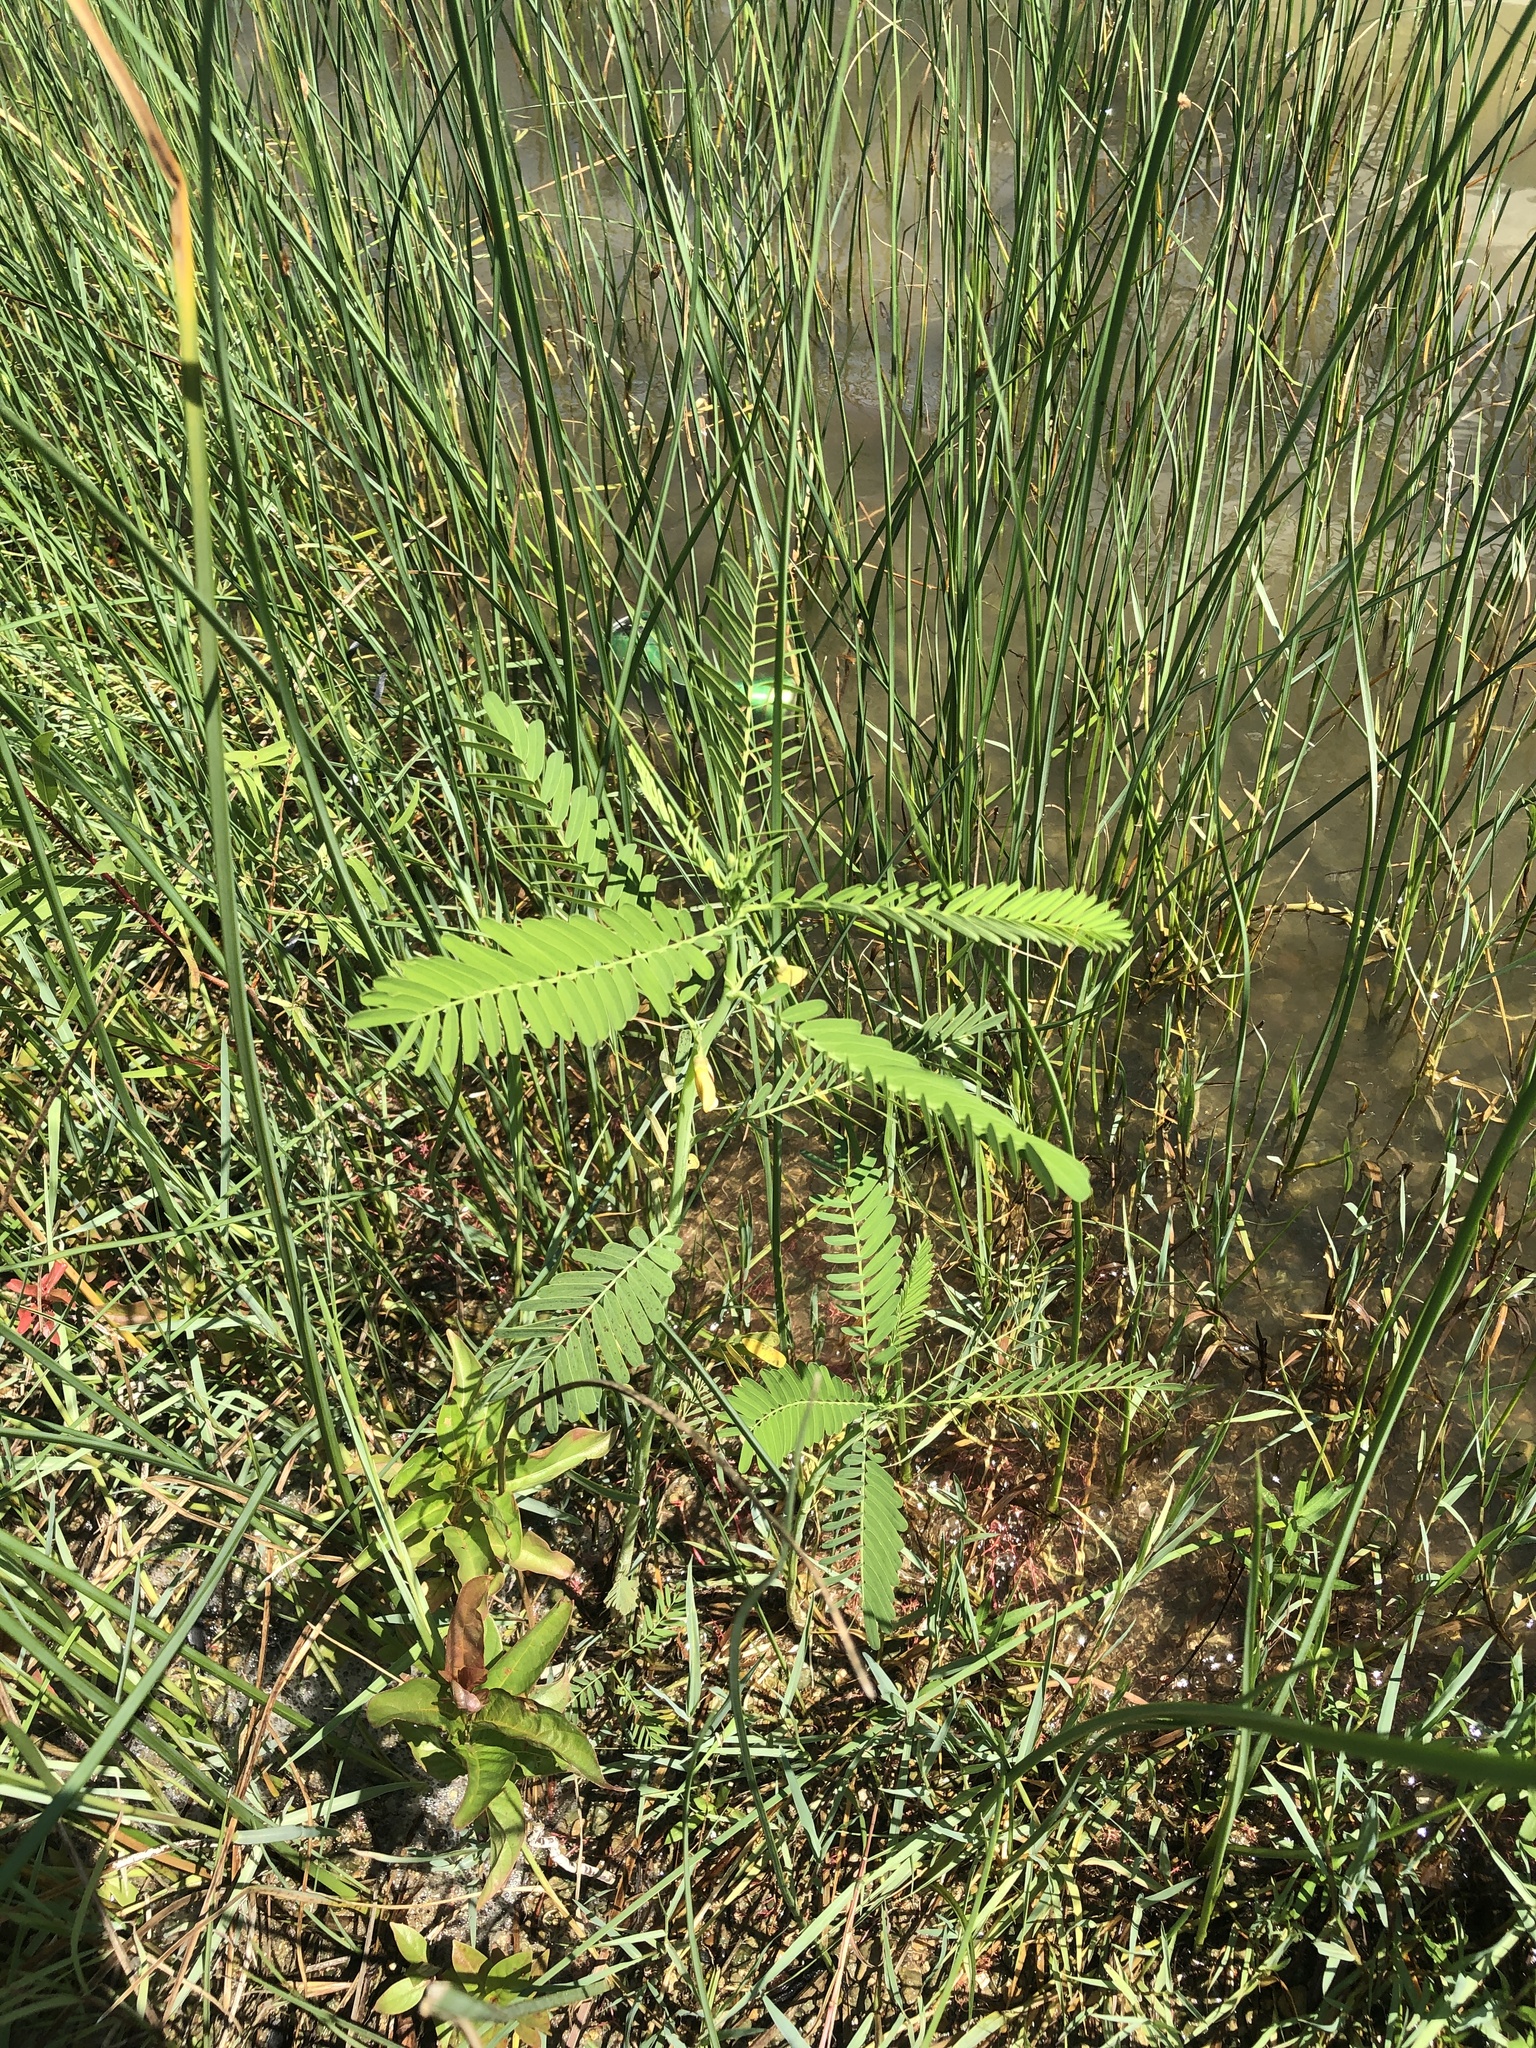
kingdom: Plantae
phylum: Tracheophyta
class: Magnoliopsida
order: Fabales
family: Fabaceae
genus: Sesbania
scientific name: Sesbania herbacea
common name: Bigpod sesbania
